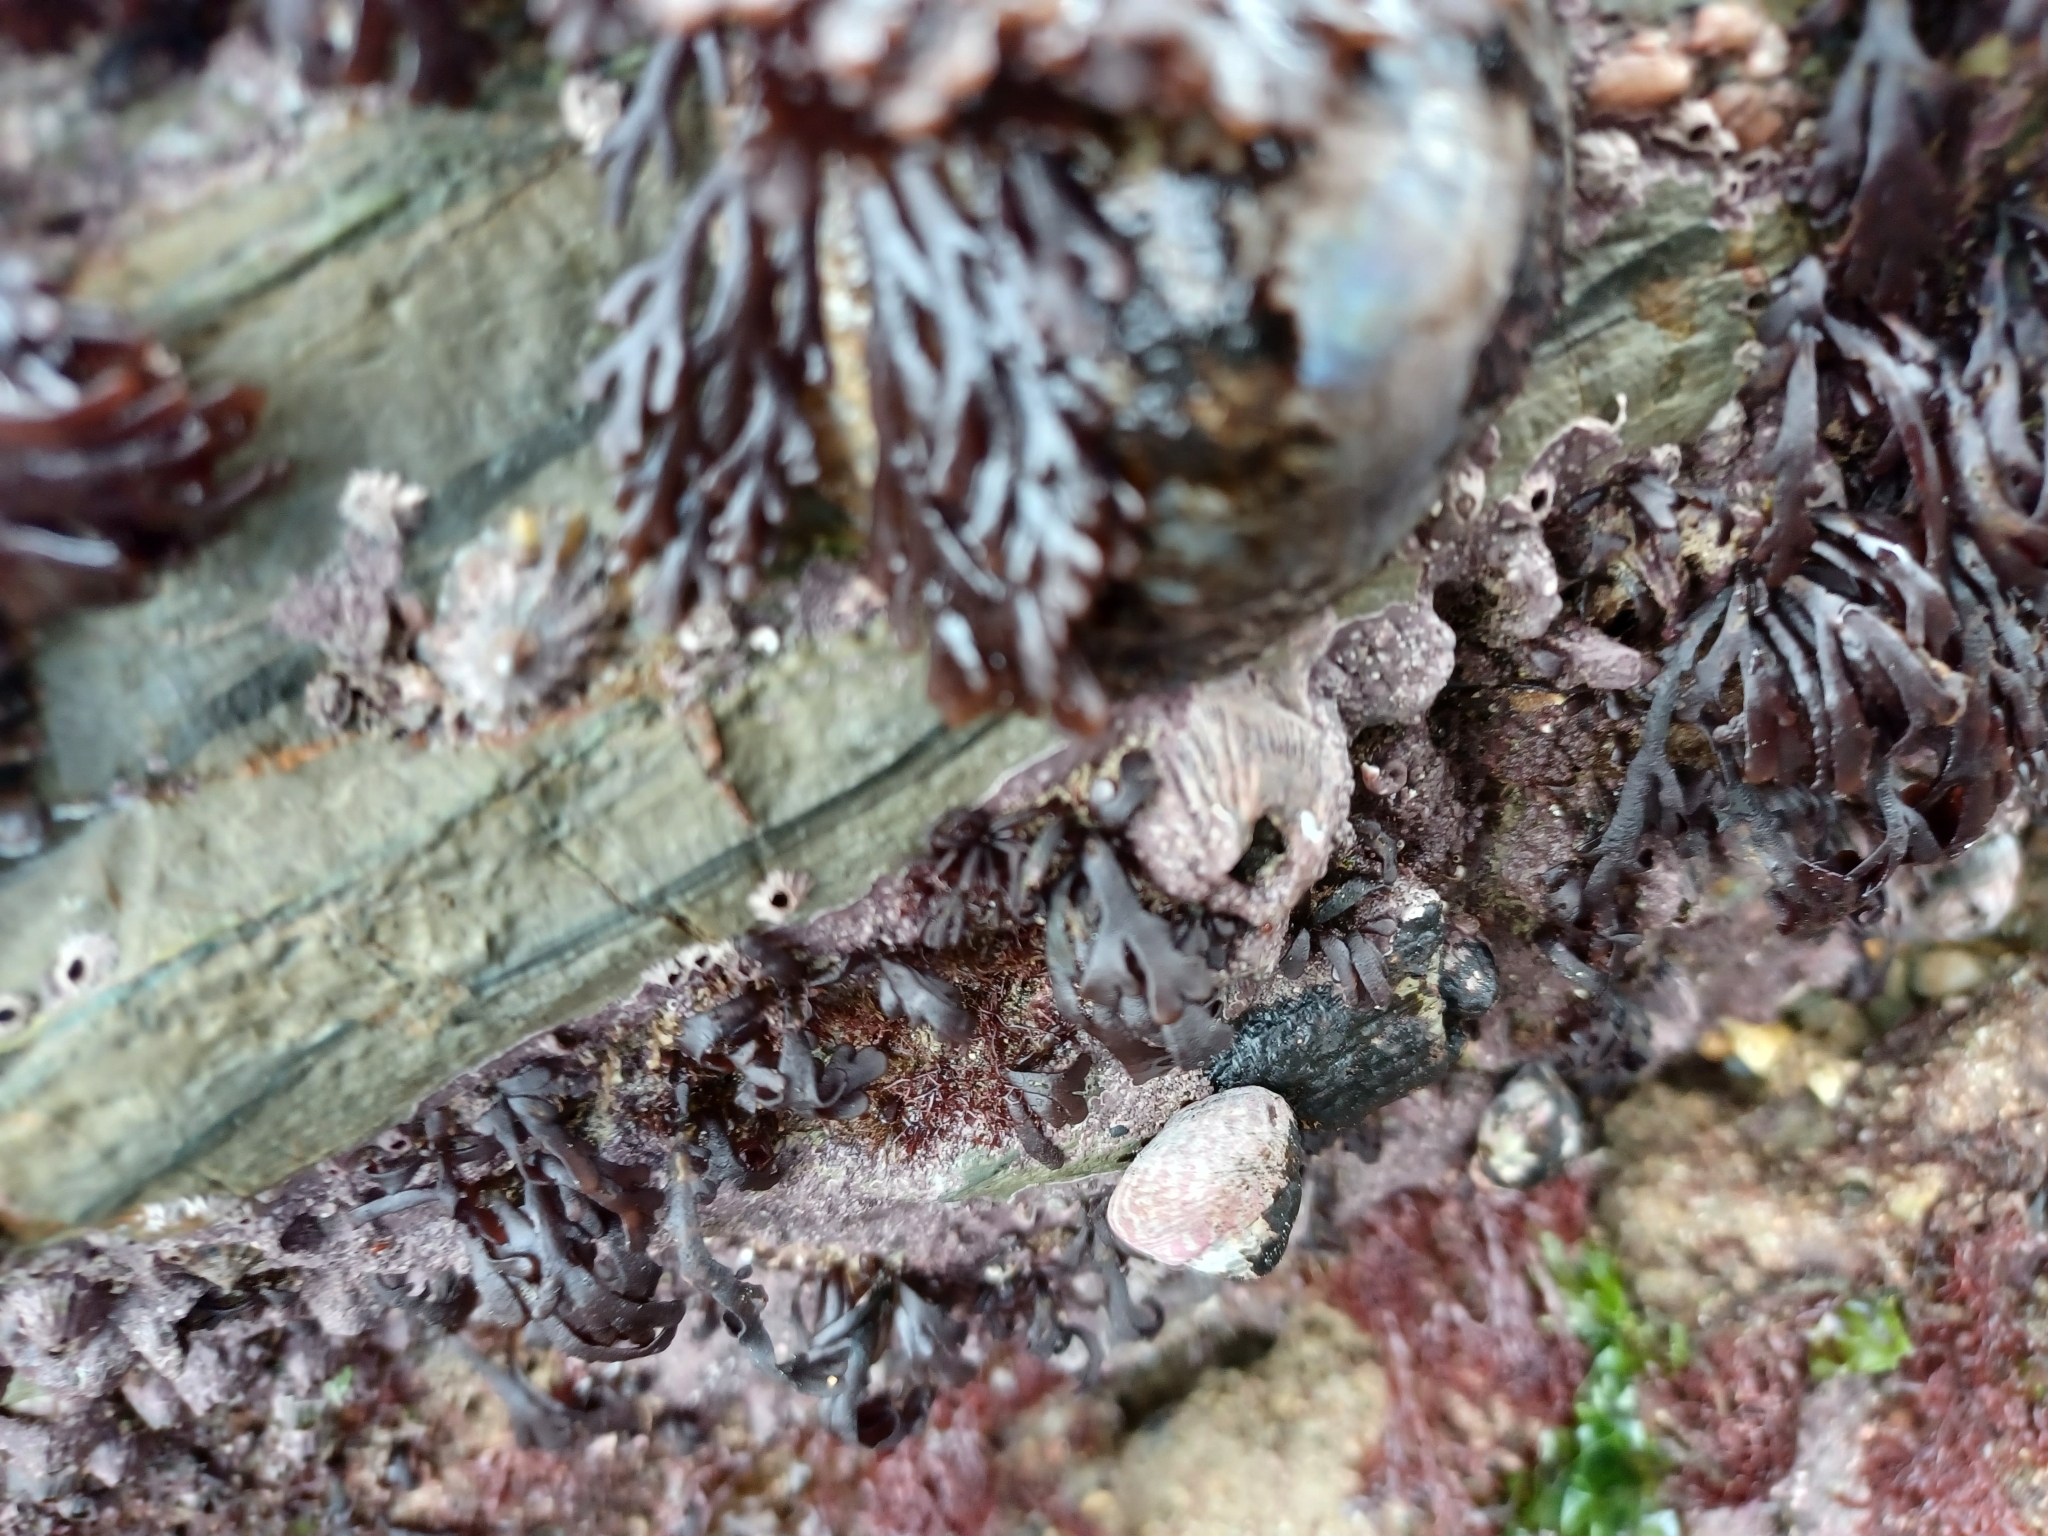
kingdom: Animalia
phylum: Arthropoda
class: Maxillopoda
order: Sessilia
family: Balanidae
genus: Perforatus
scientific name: Perforatus perforatus
